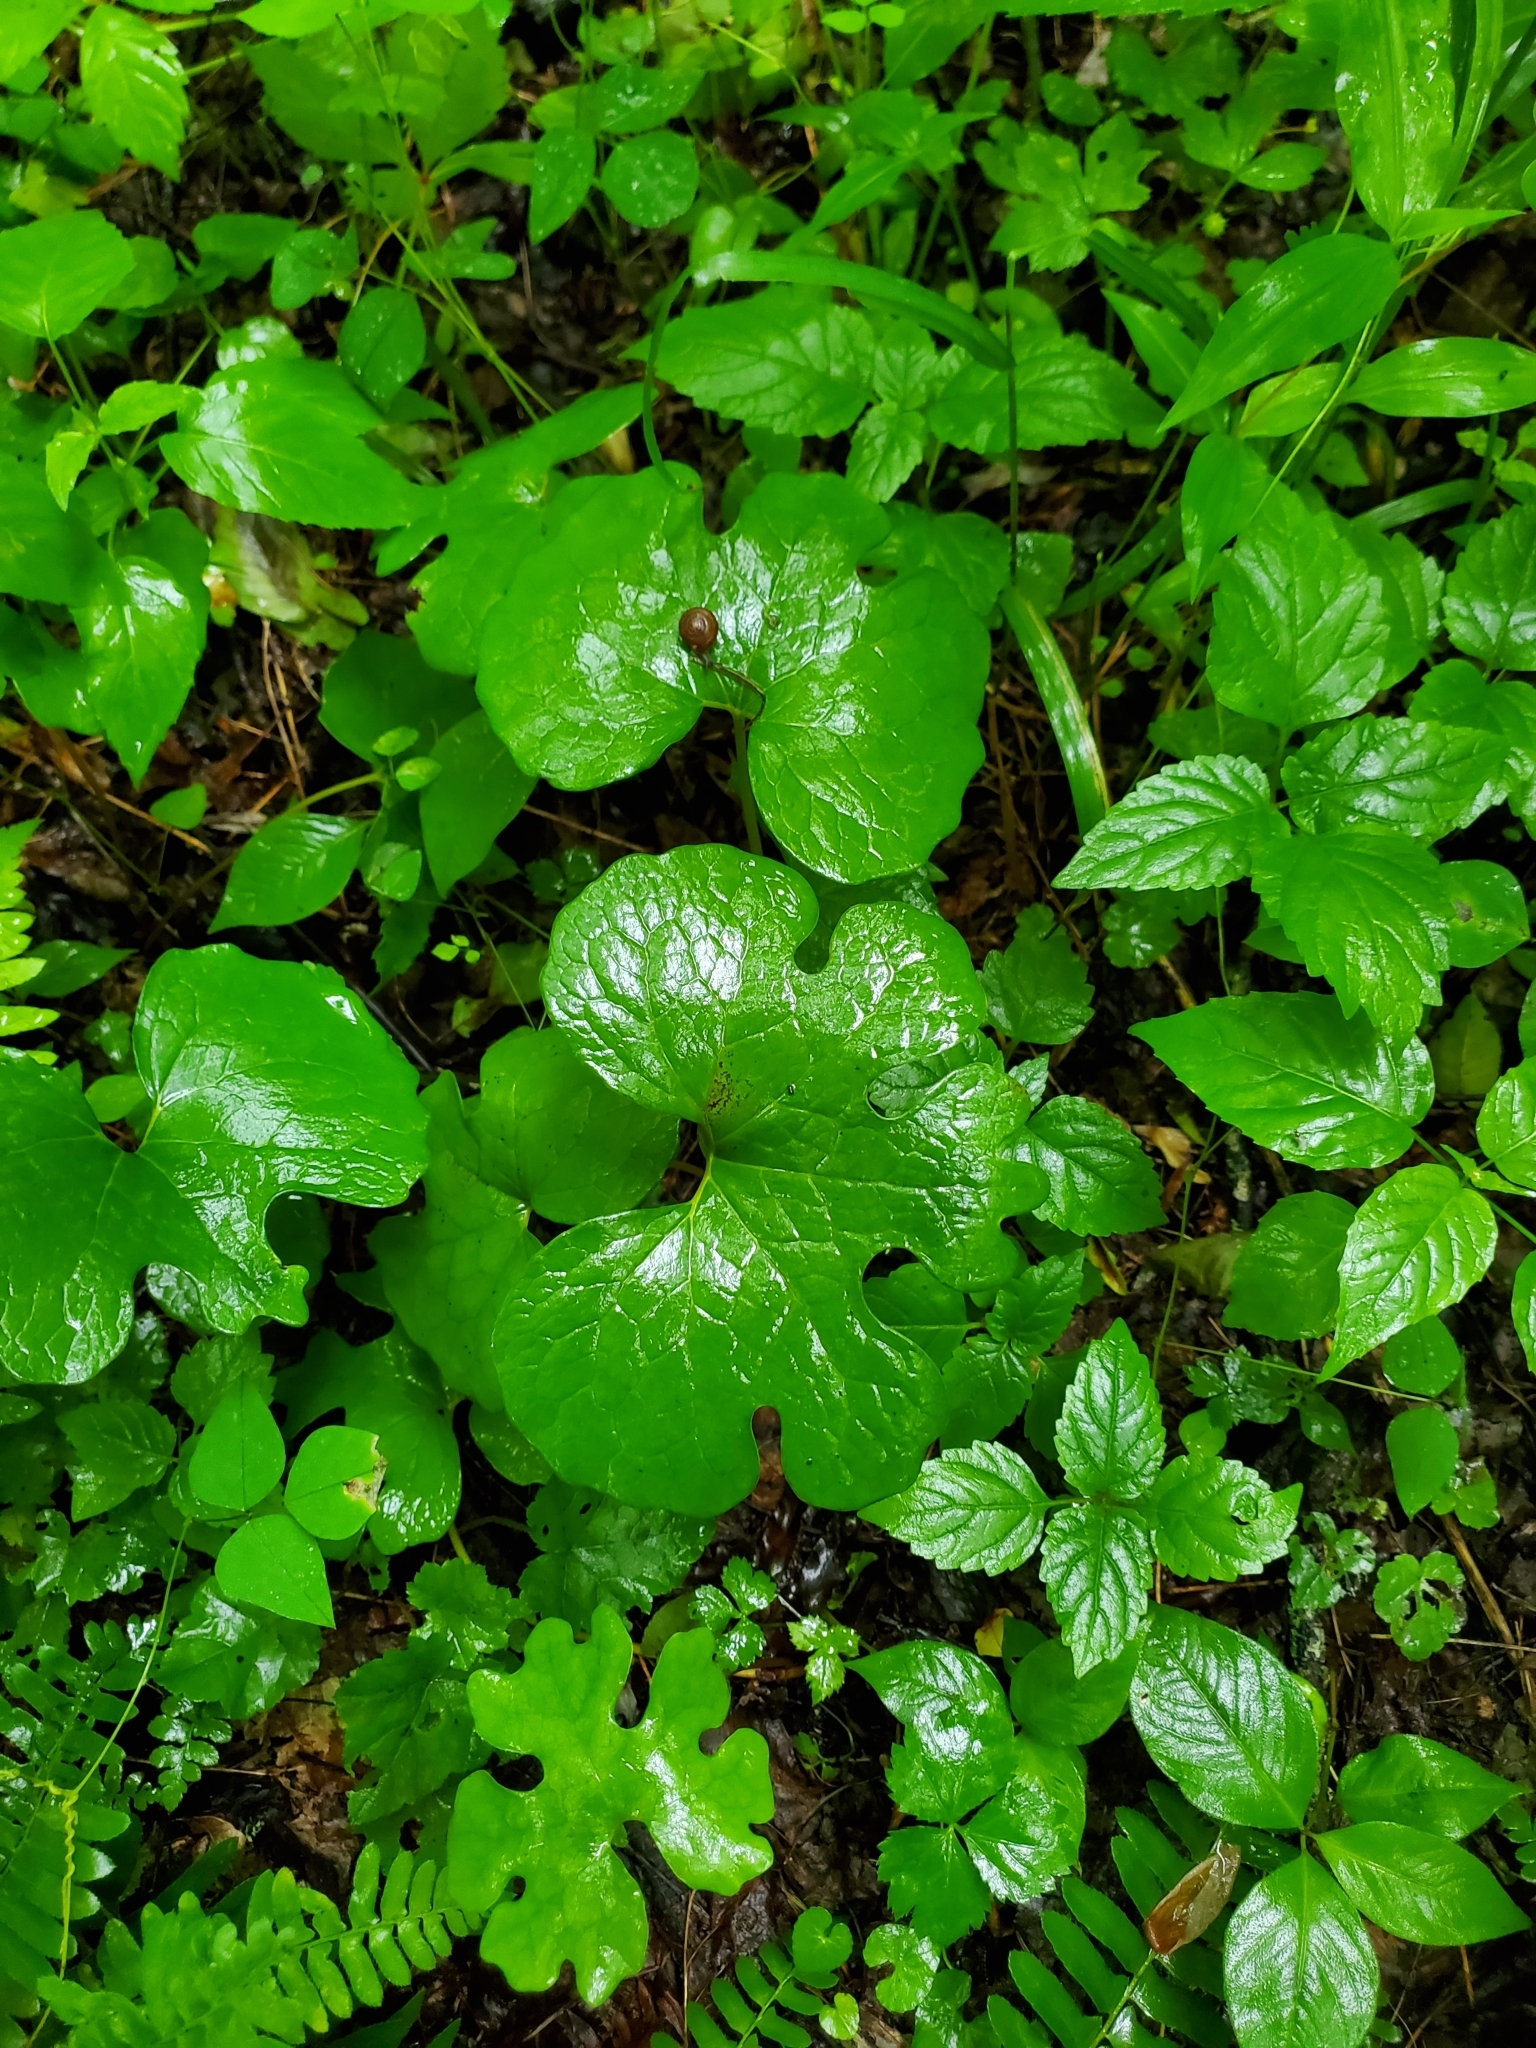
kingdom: Plantae
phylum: Tracheophyta
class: Magnoliopsida
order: Ranunculales
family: Papaveraceae
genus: Sanguinaria
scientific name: Sanguinaria canadensis
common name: Bloodroot
